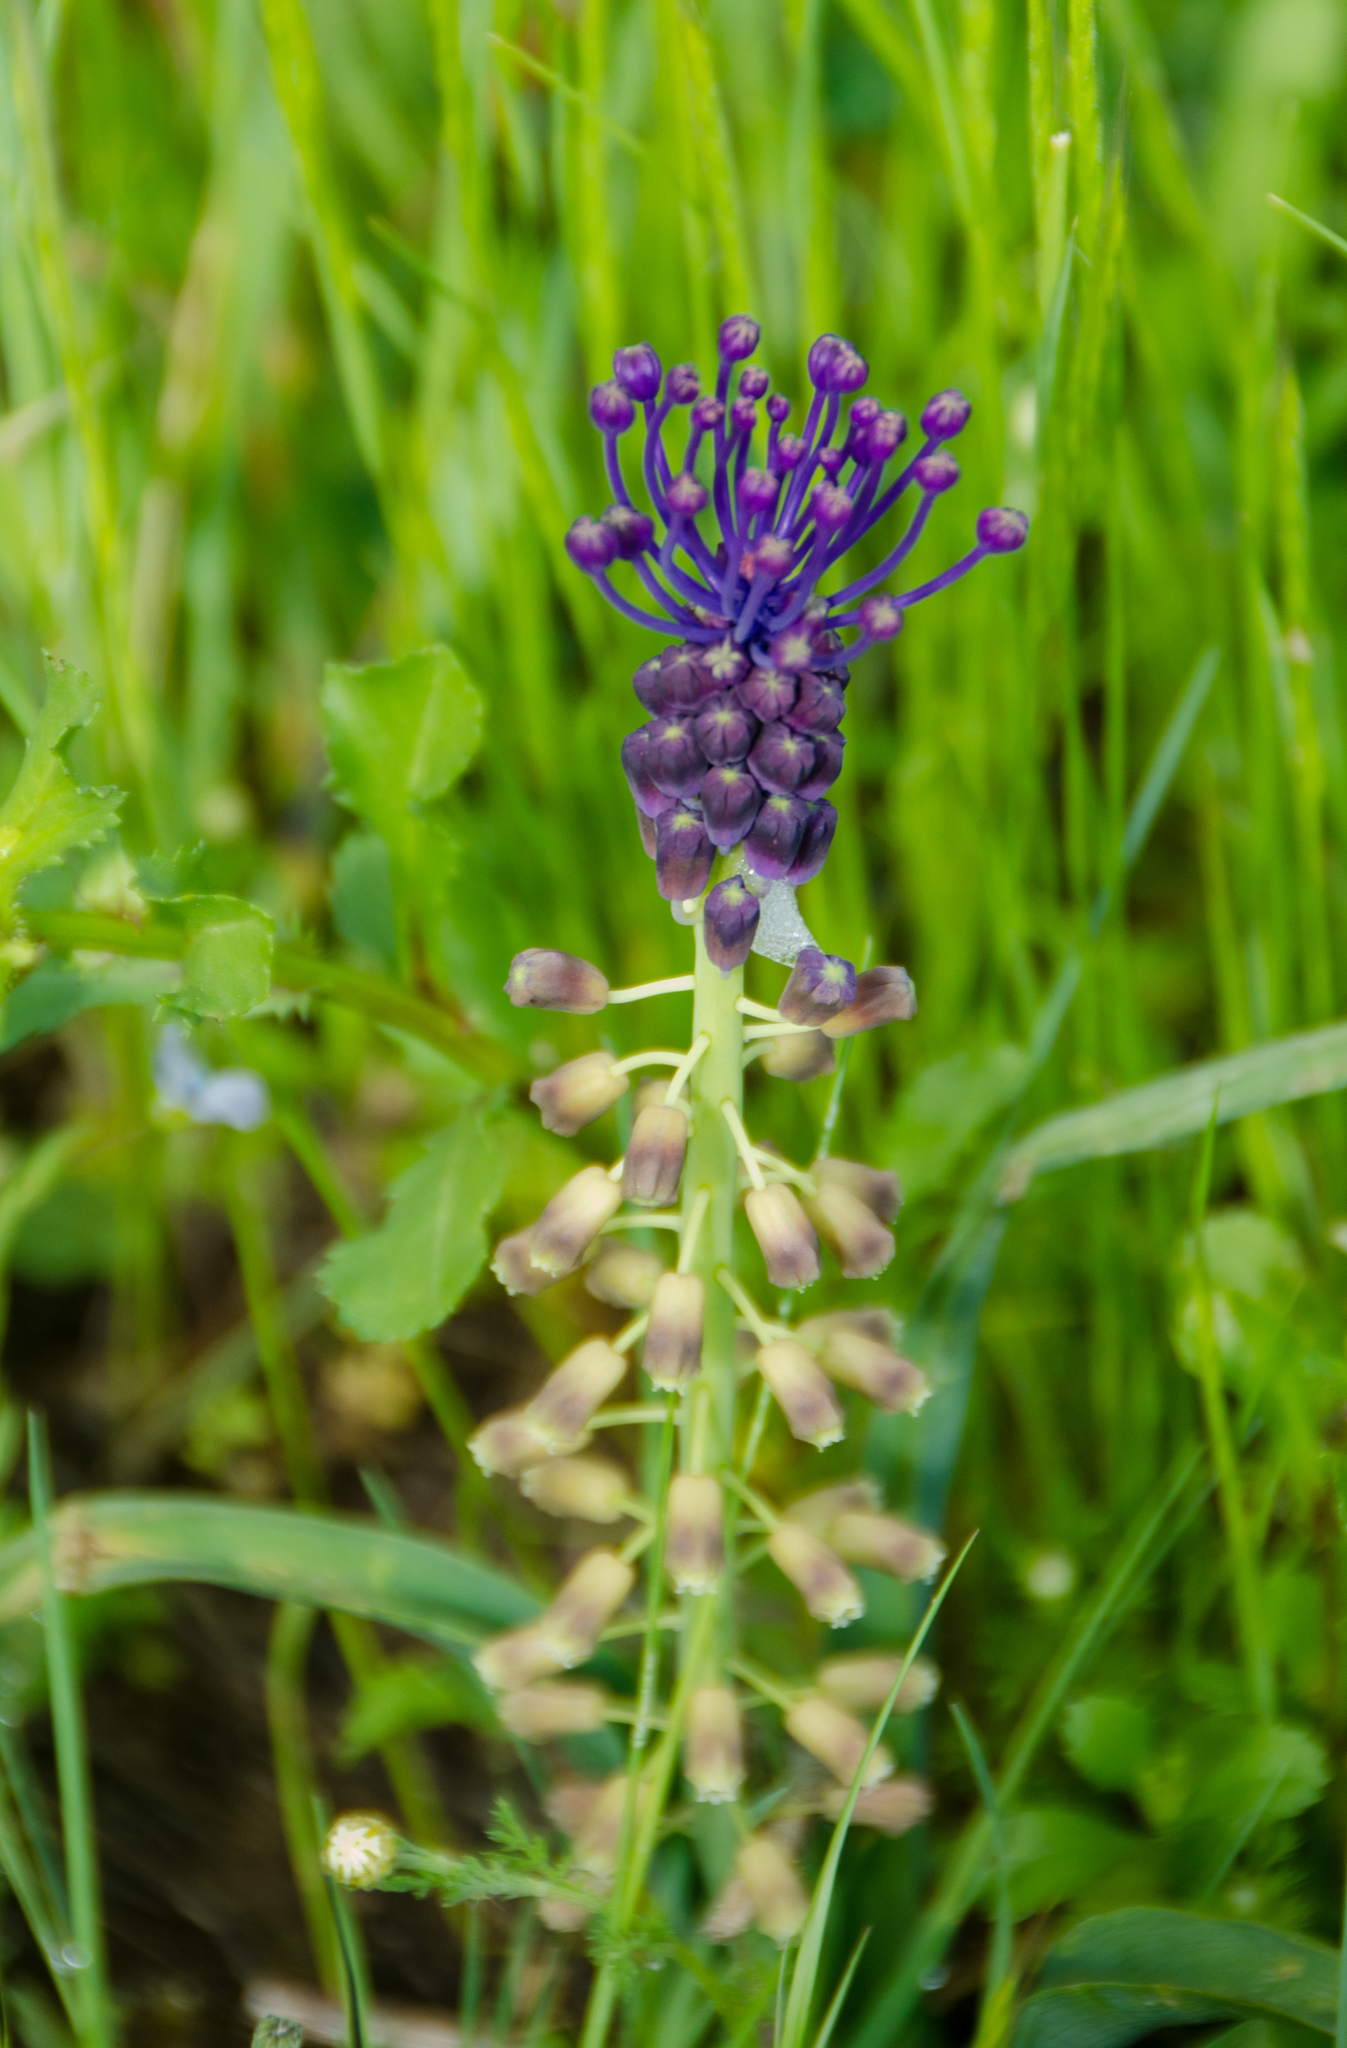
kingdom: Plantae
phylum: Tracheophyta
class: Liliopsida
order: Asparagales
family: Asparagaceae
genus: Muscari
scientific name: Muscari comosum
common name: Tassel hyacinth
